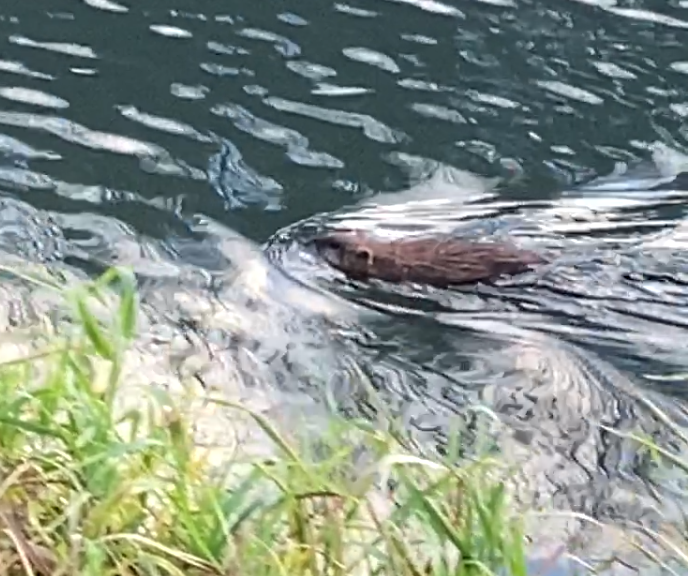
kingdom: Animalia
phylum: Chordata
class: Mammalia
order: Rodentia
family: Cricetidae
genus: Ondatra
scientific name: Ondatra zibethicus
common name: Muskrat
